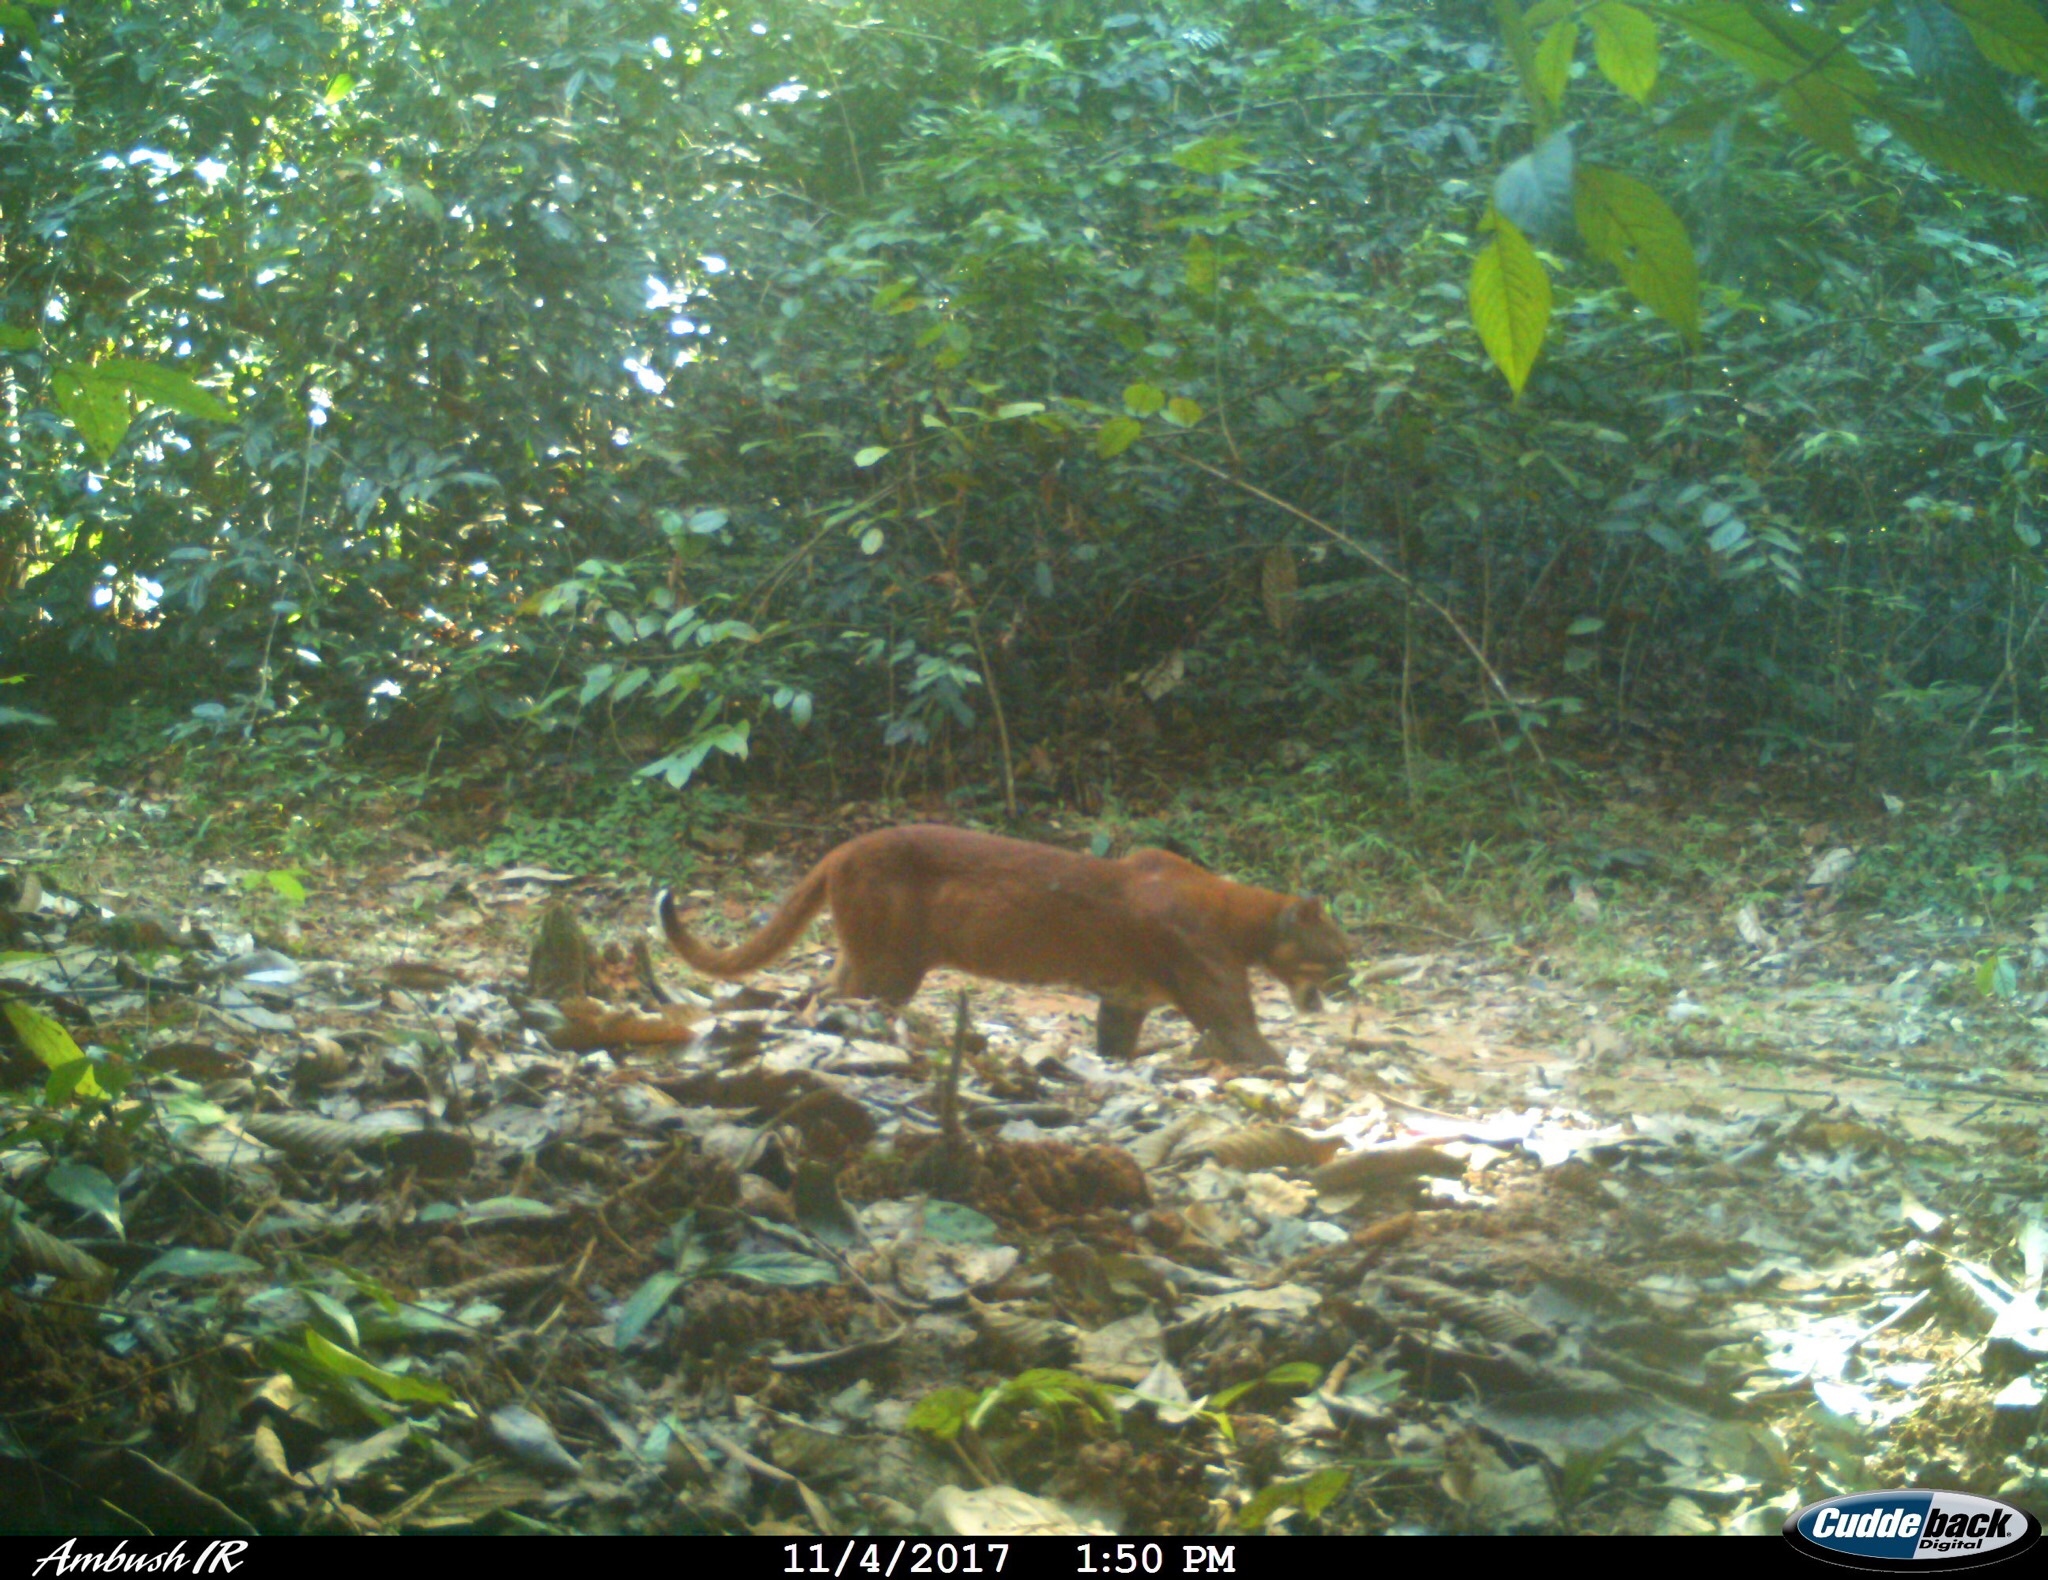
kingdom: Animalia
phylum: Chordata
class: Mammalia
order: Carnivora
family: Felidae
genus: Catopuma
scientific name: Catopuma temminckii
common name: Asian golden cat
